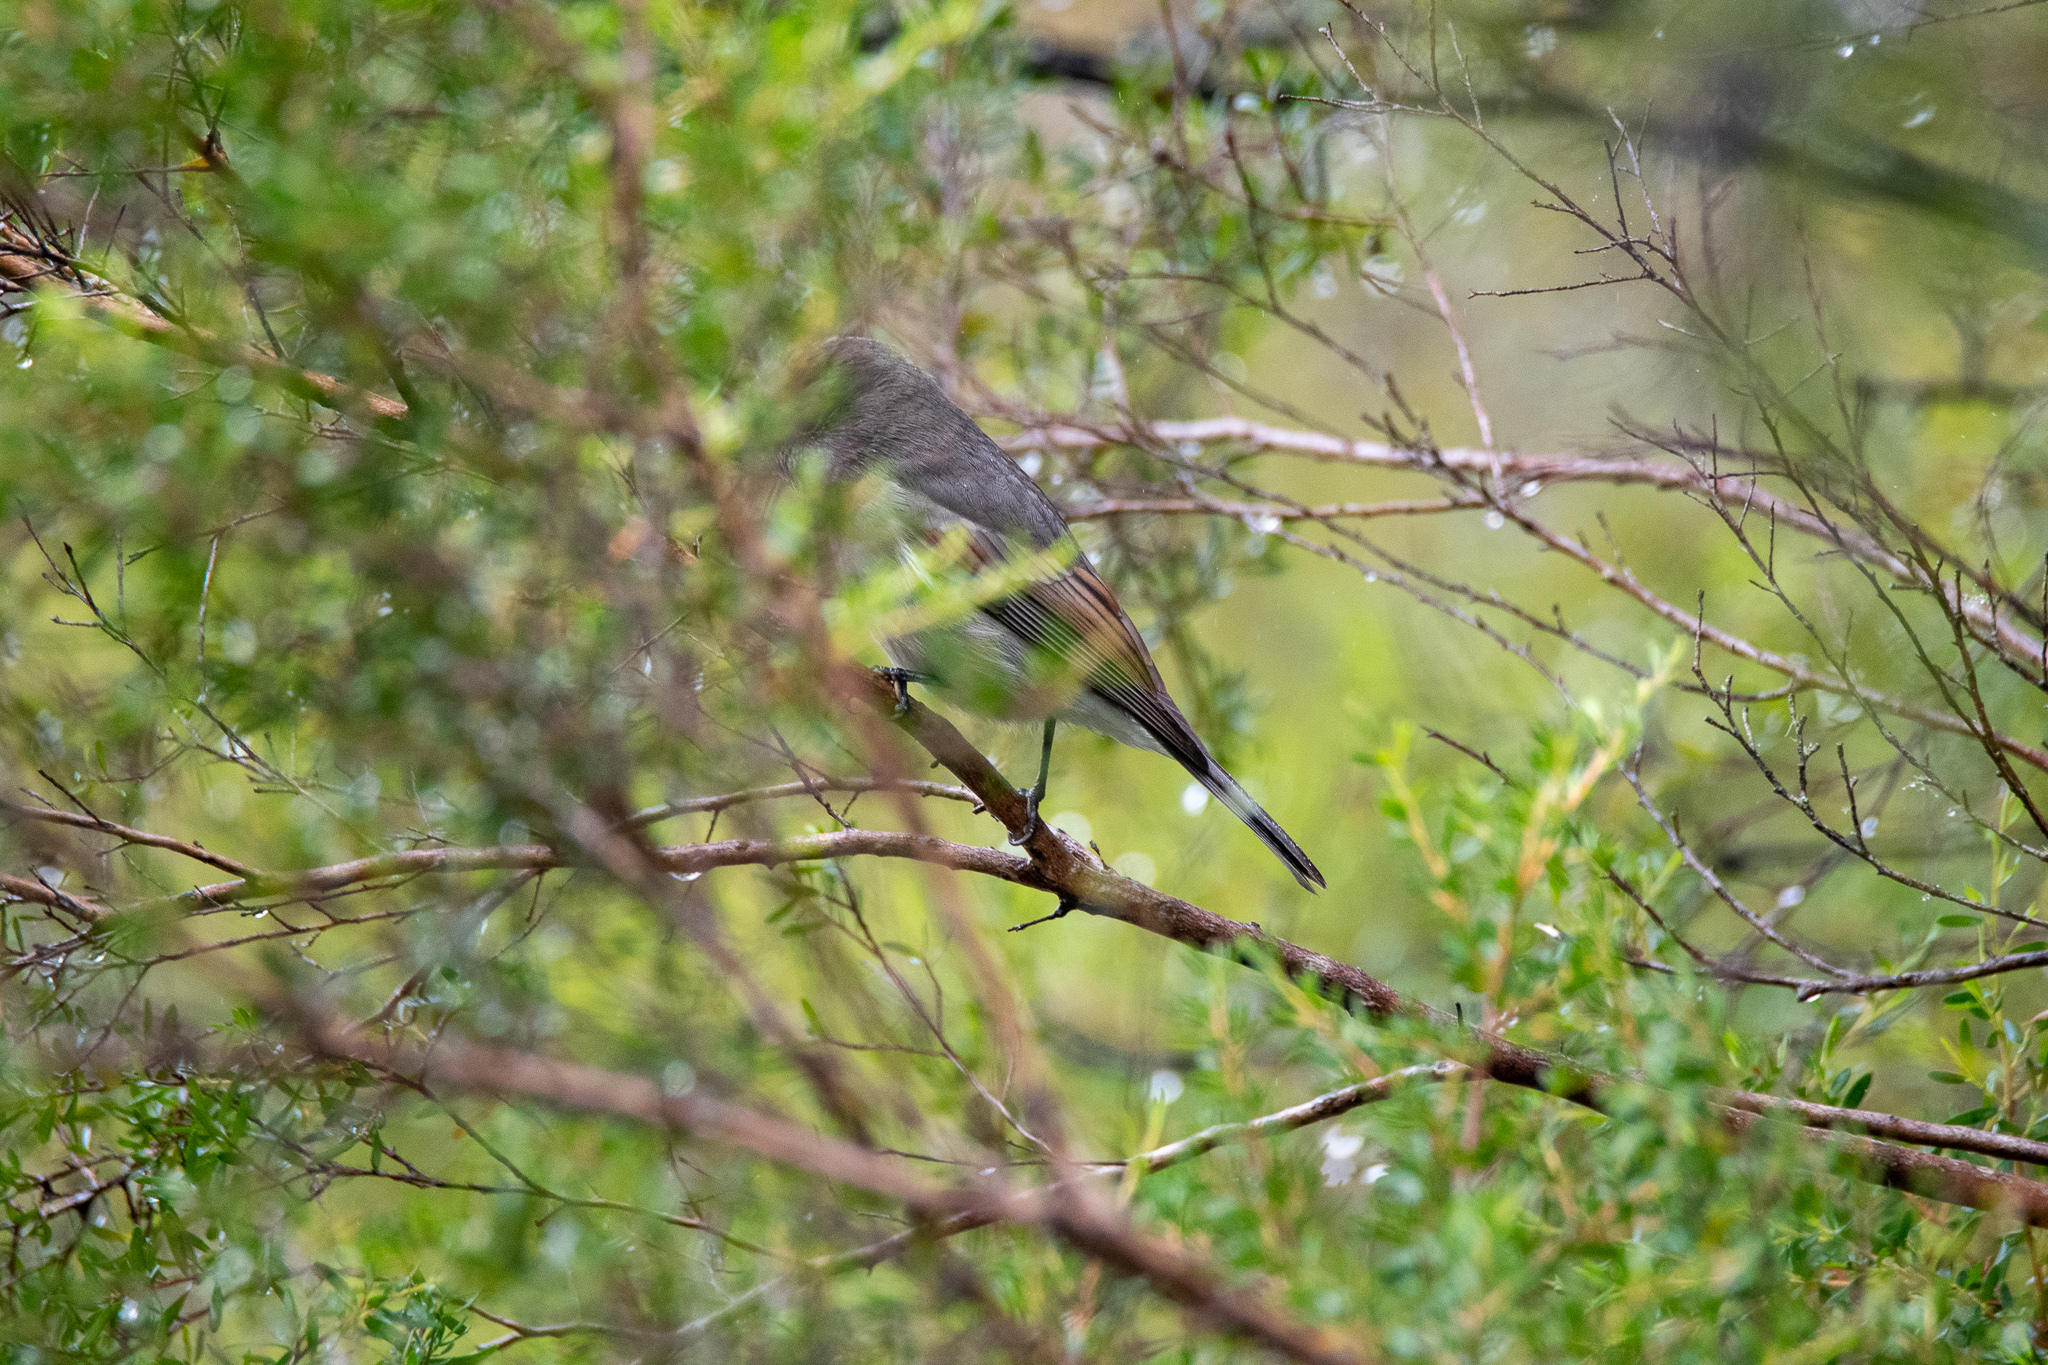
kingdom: Animalia
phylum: Chordata
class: Aves
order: Passeriformes
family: Pachycephalidae
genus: Pachycephala
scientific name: Pachycephala pectoralis
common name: Australian golden whistler
